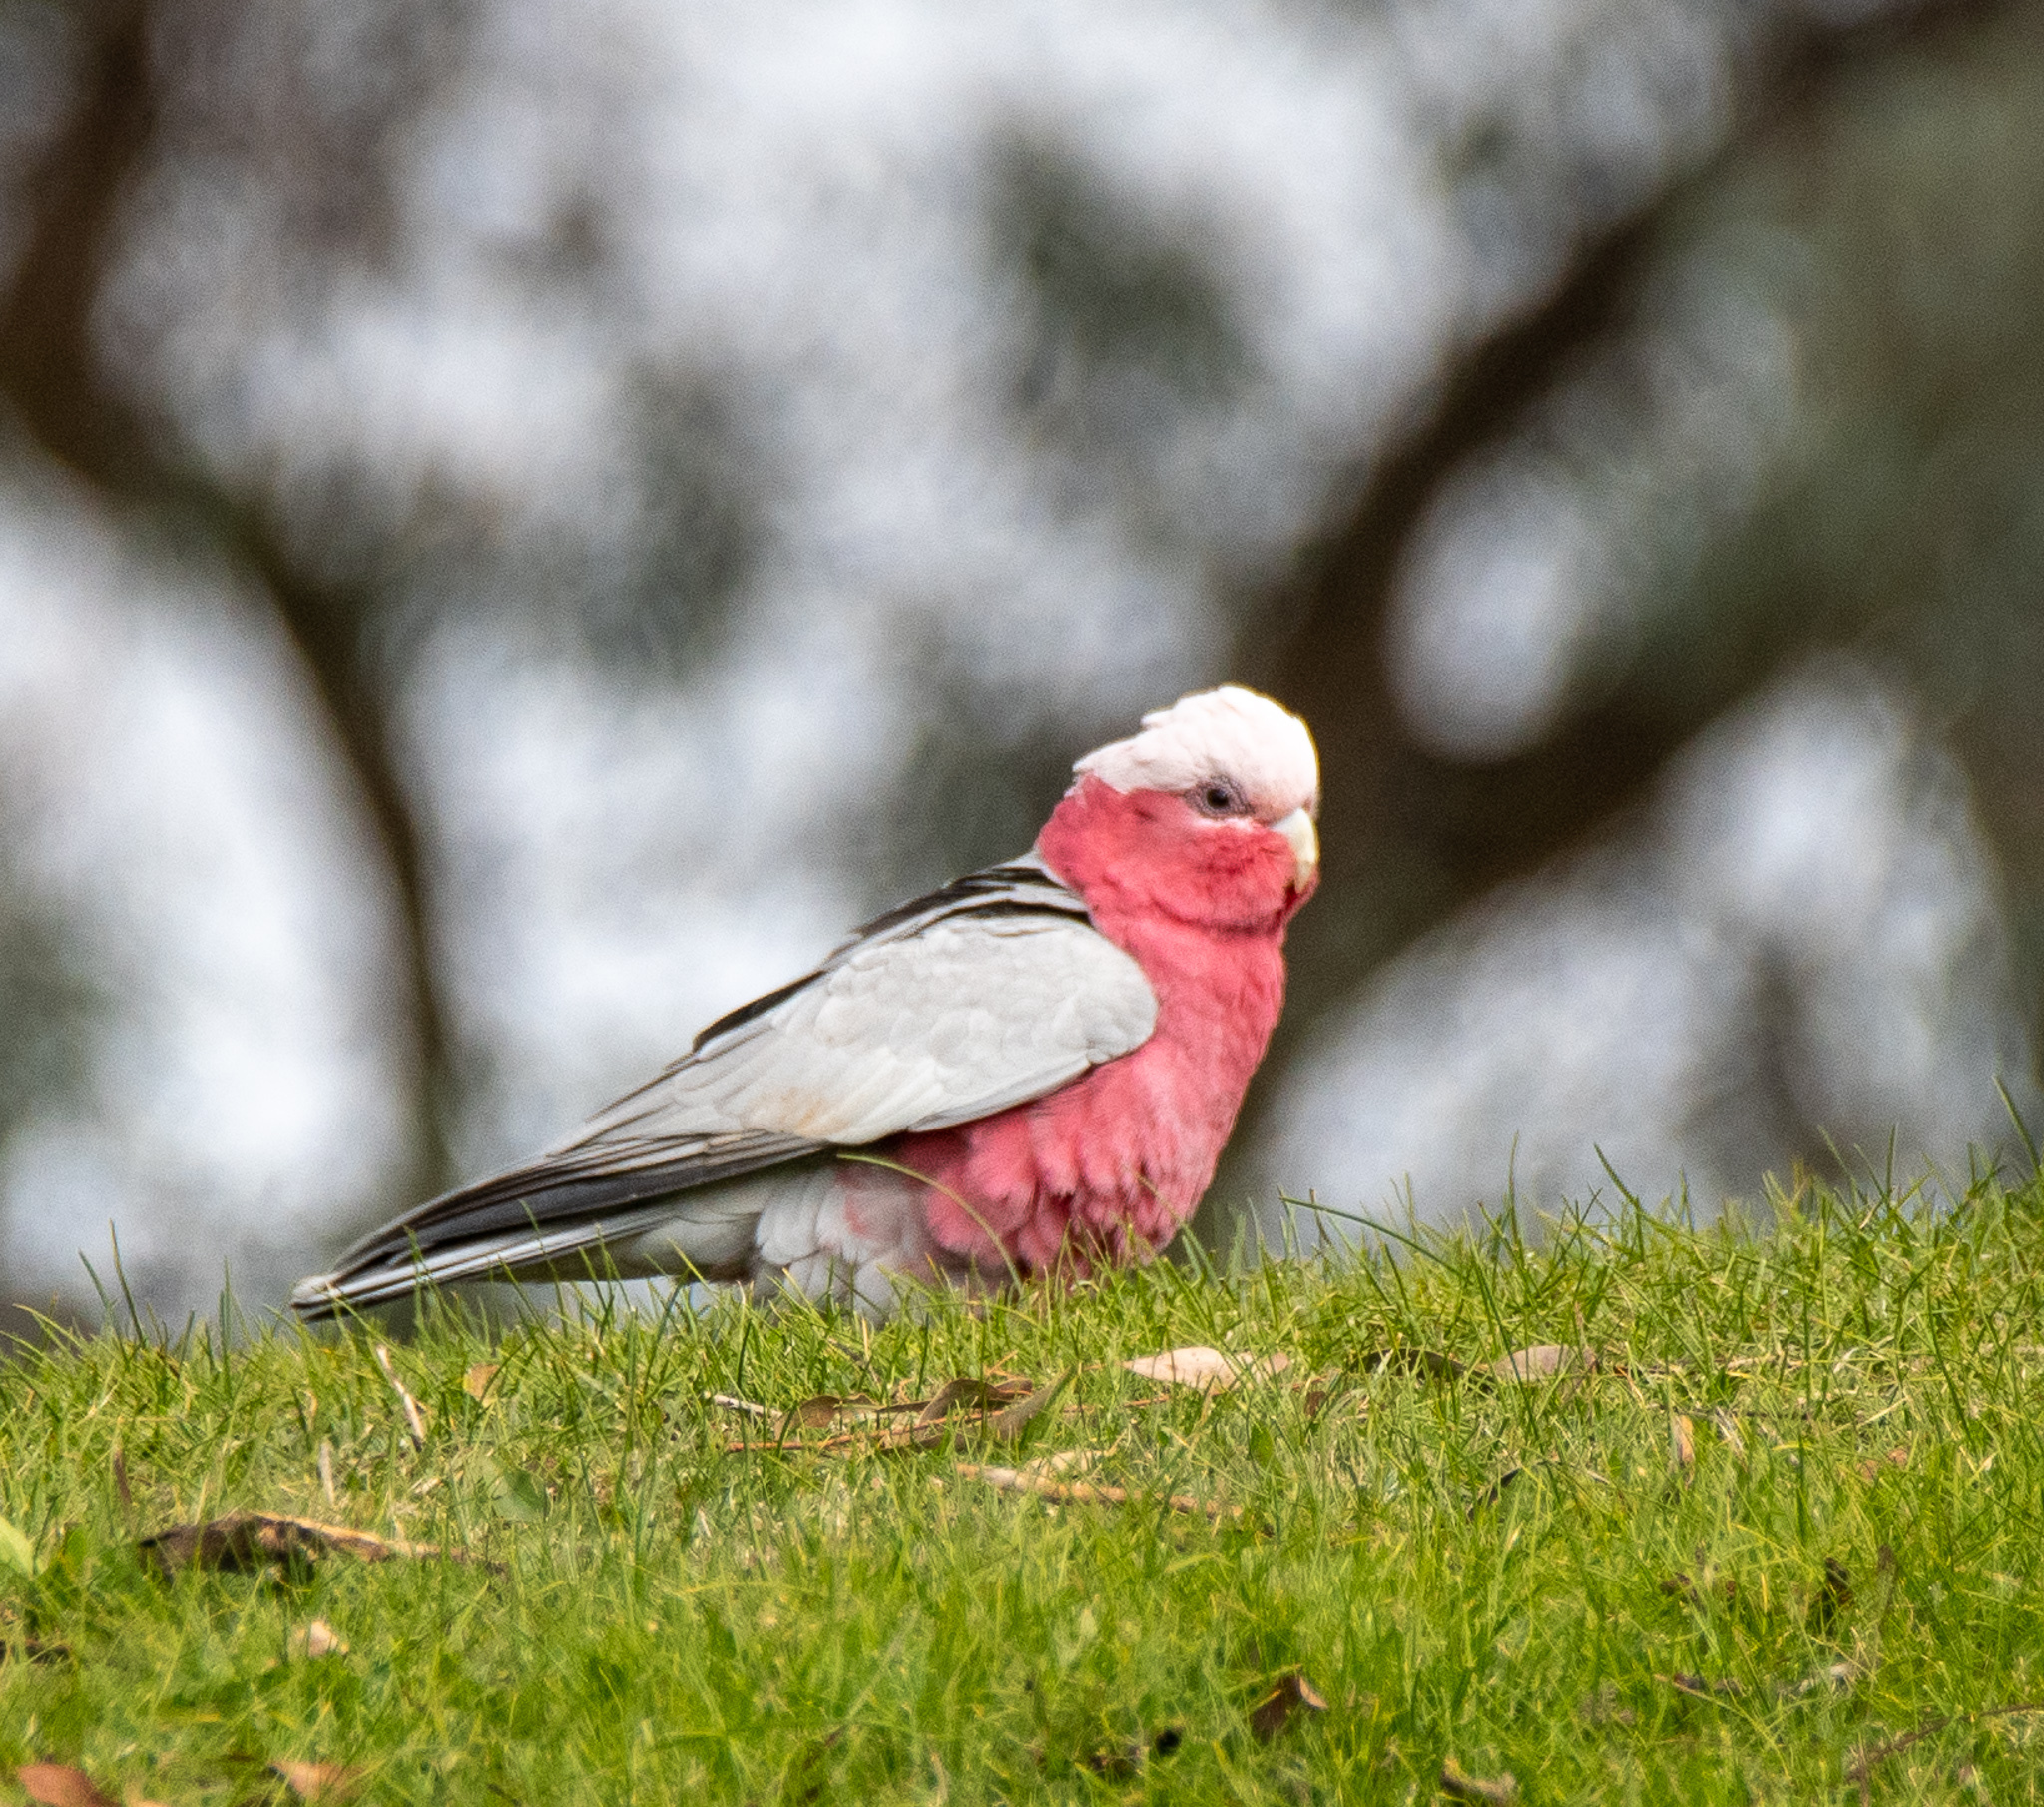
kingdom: Animalia
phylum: Chordata
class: Aves
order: Psittaciformes
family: Psittacidae
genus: Eolophus
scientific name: Eolophus roseicapilla
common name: Galah
